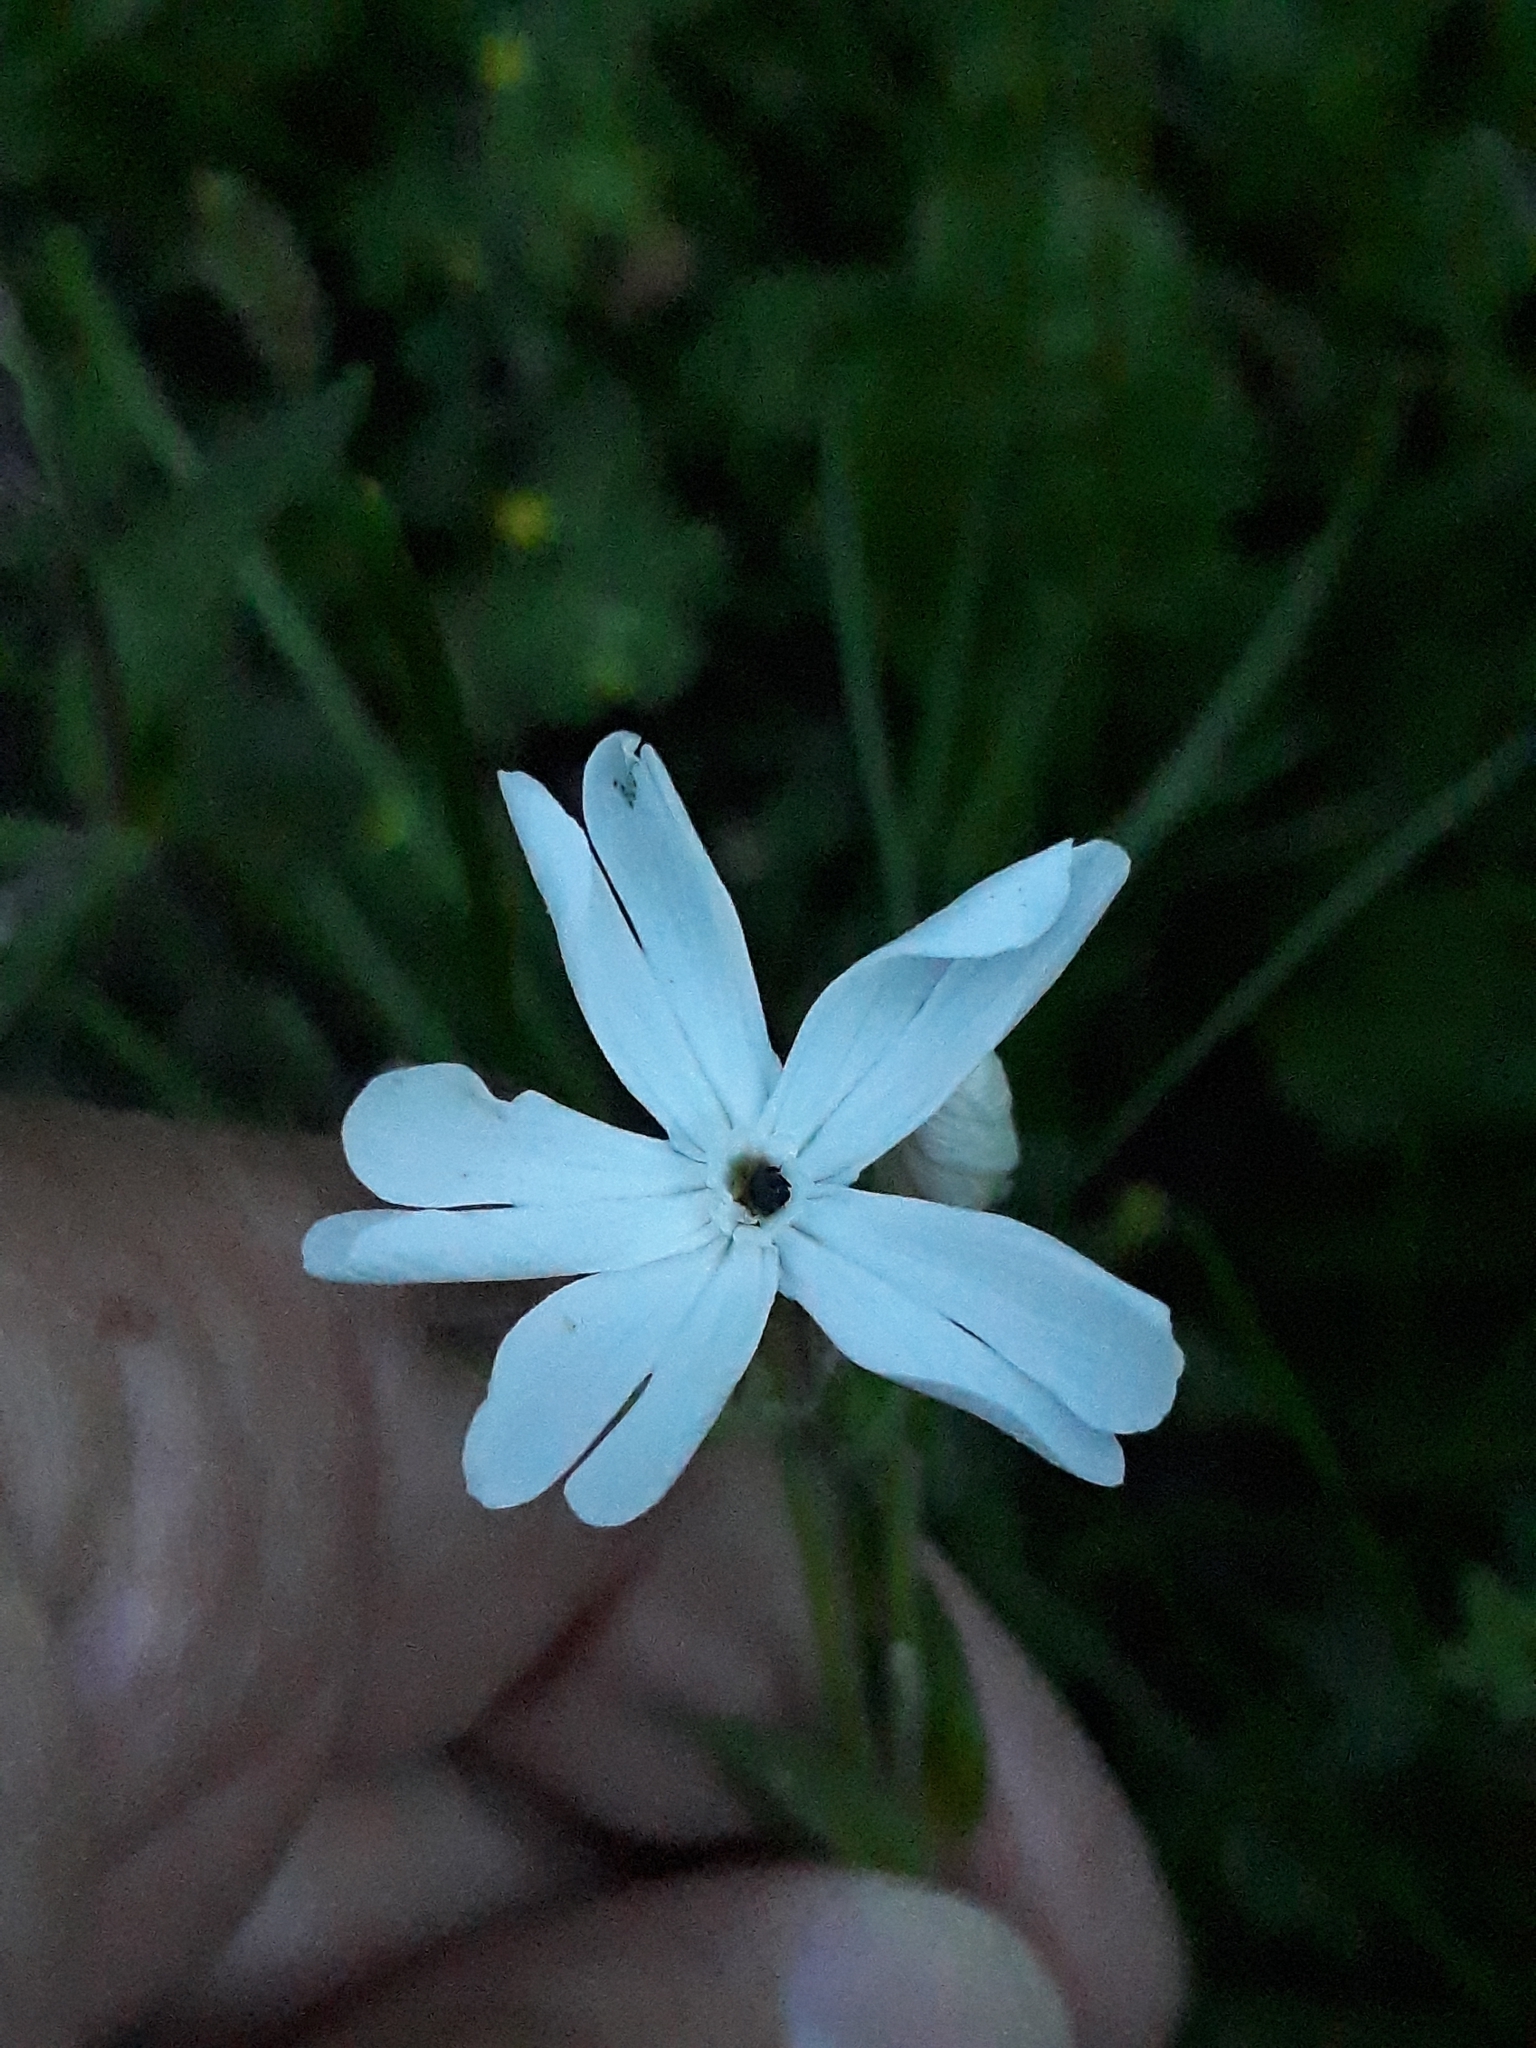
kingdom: Plantae
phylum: Tracheophyta
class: Magnoliopsida
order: Caryophyllales
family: Caryophyllaceae
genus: Silene
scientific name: Silene latifolia
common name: White campion
